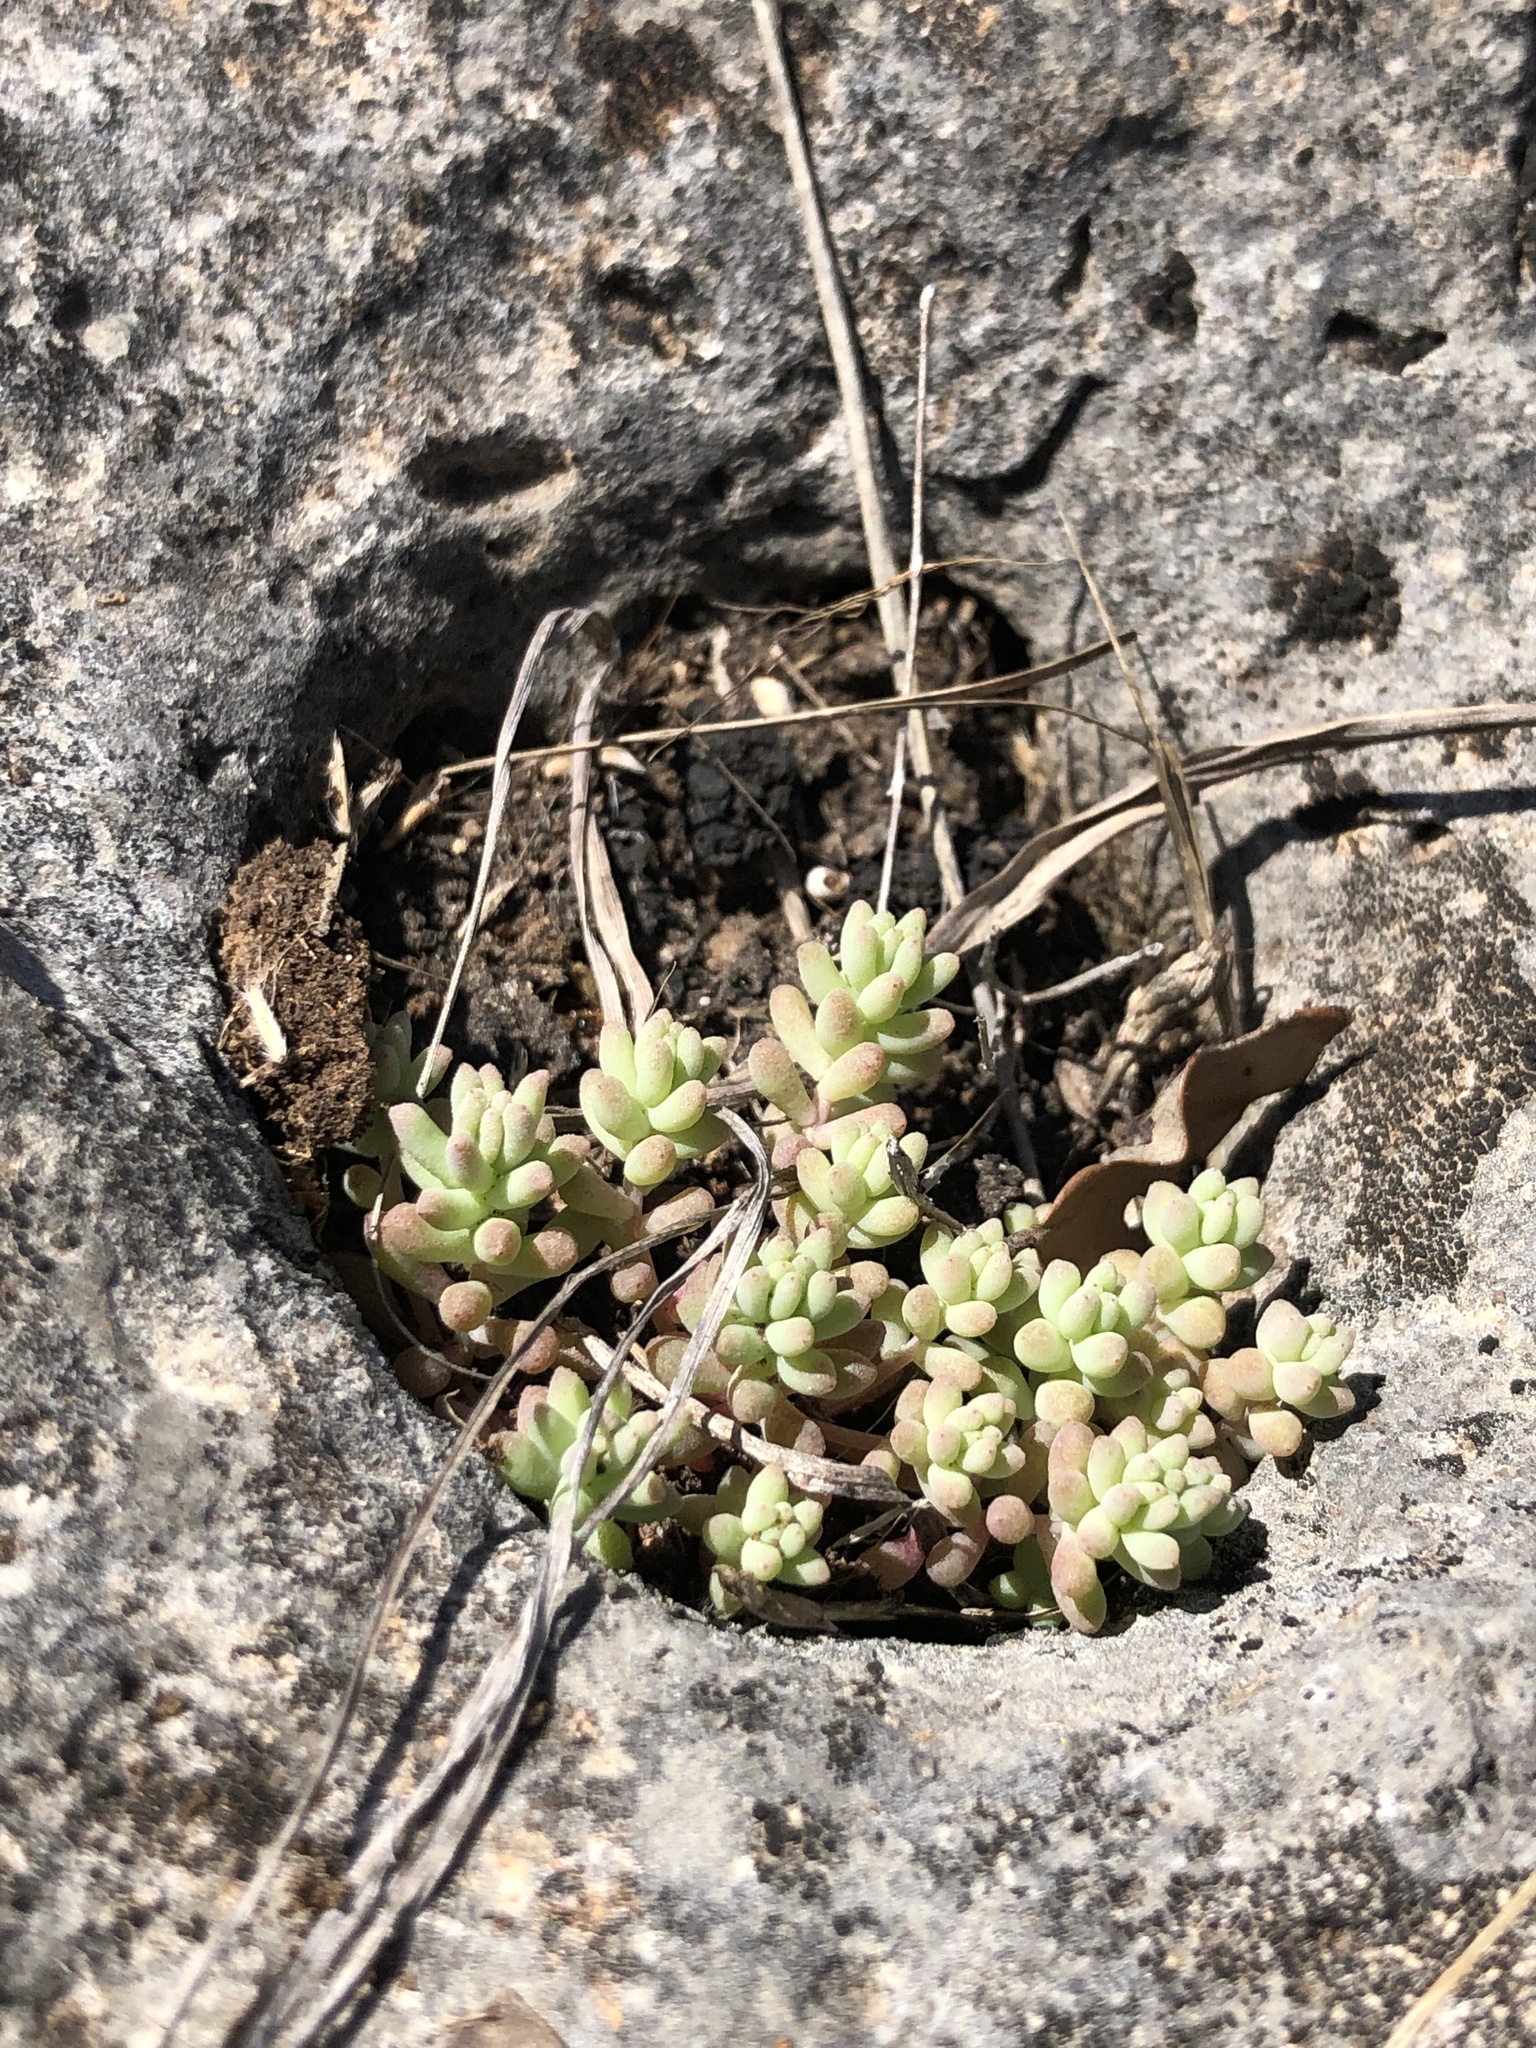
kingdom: Plantae
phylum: Tracheophyta
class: Magnoliopsida
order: Saxifragales
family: Crassulaceae
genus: Sedum
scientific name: Sedum nuttallii
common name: Yellow stonecrop
